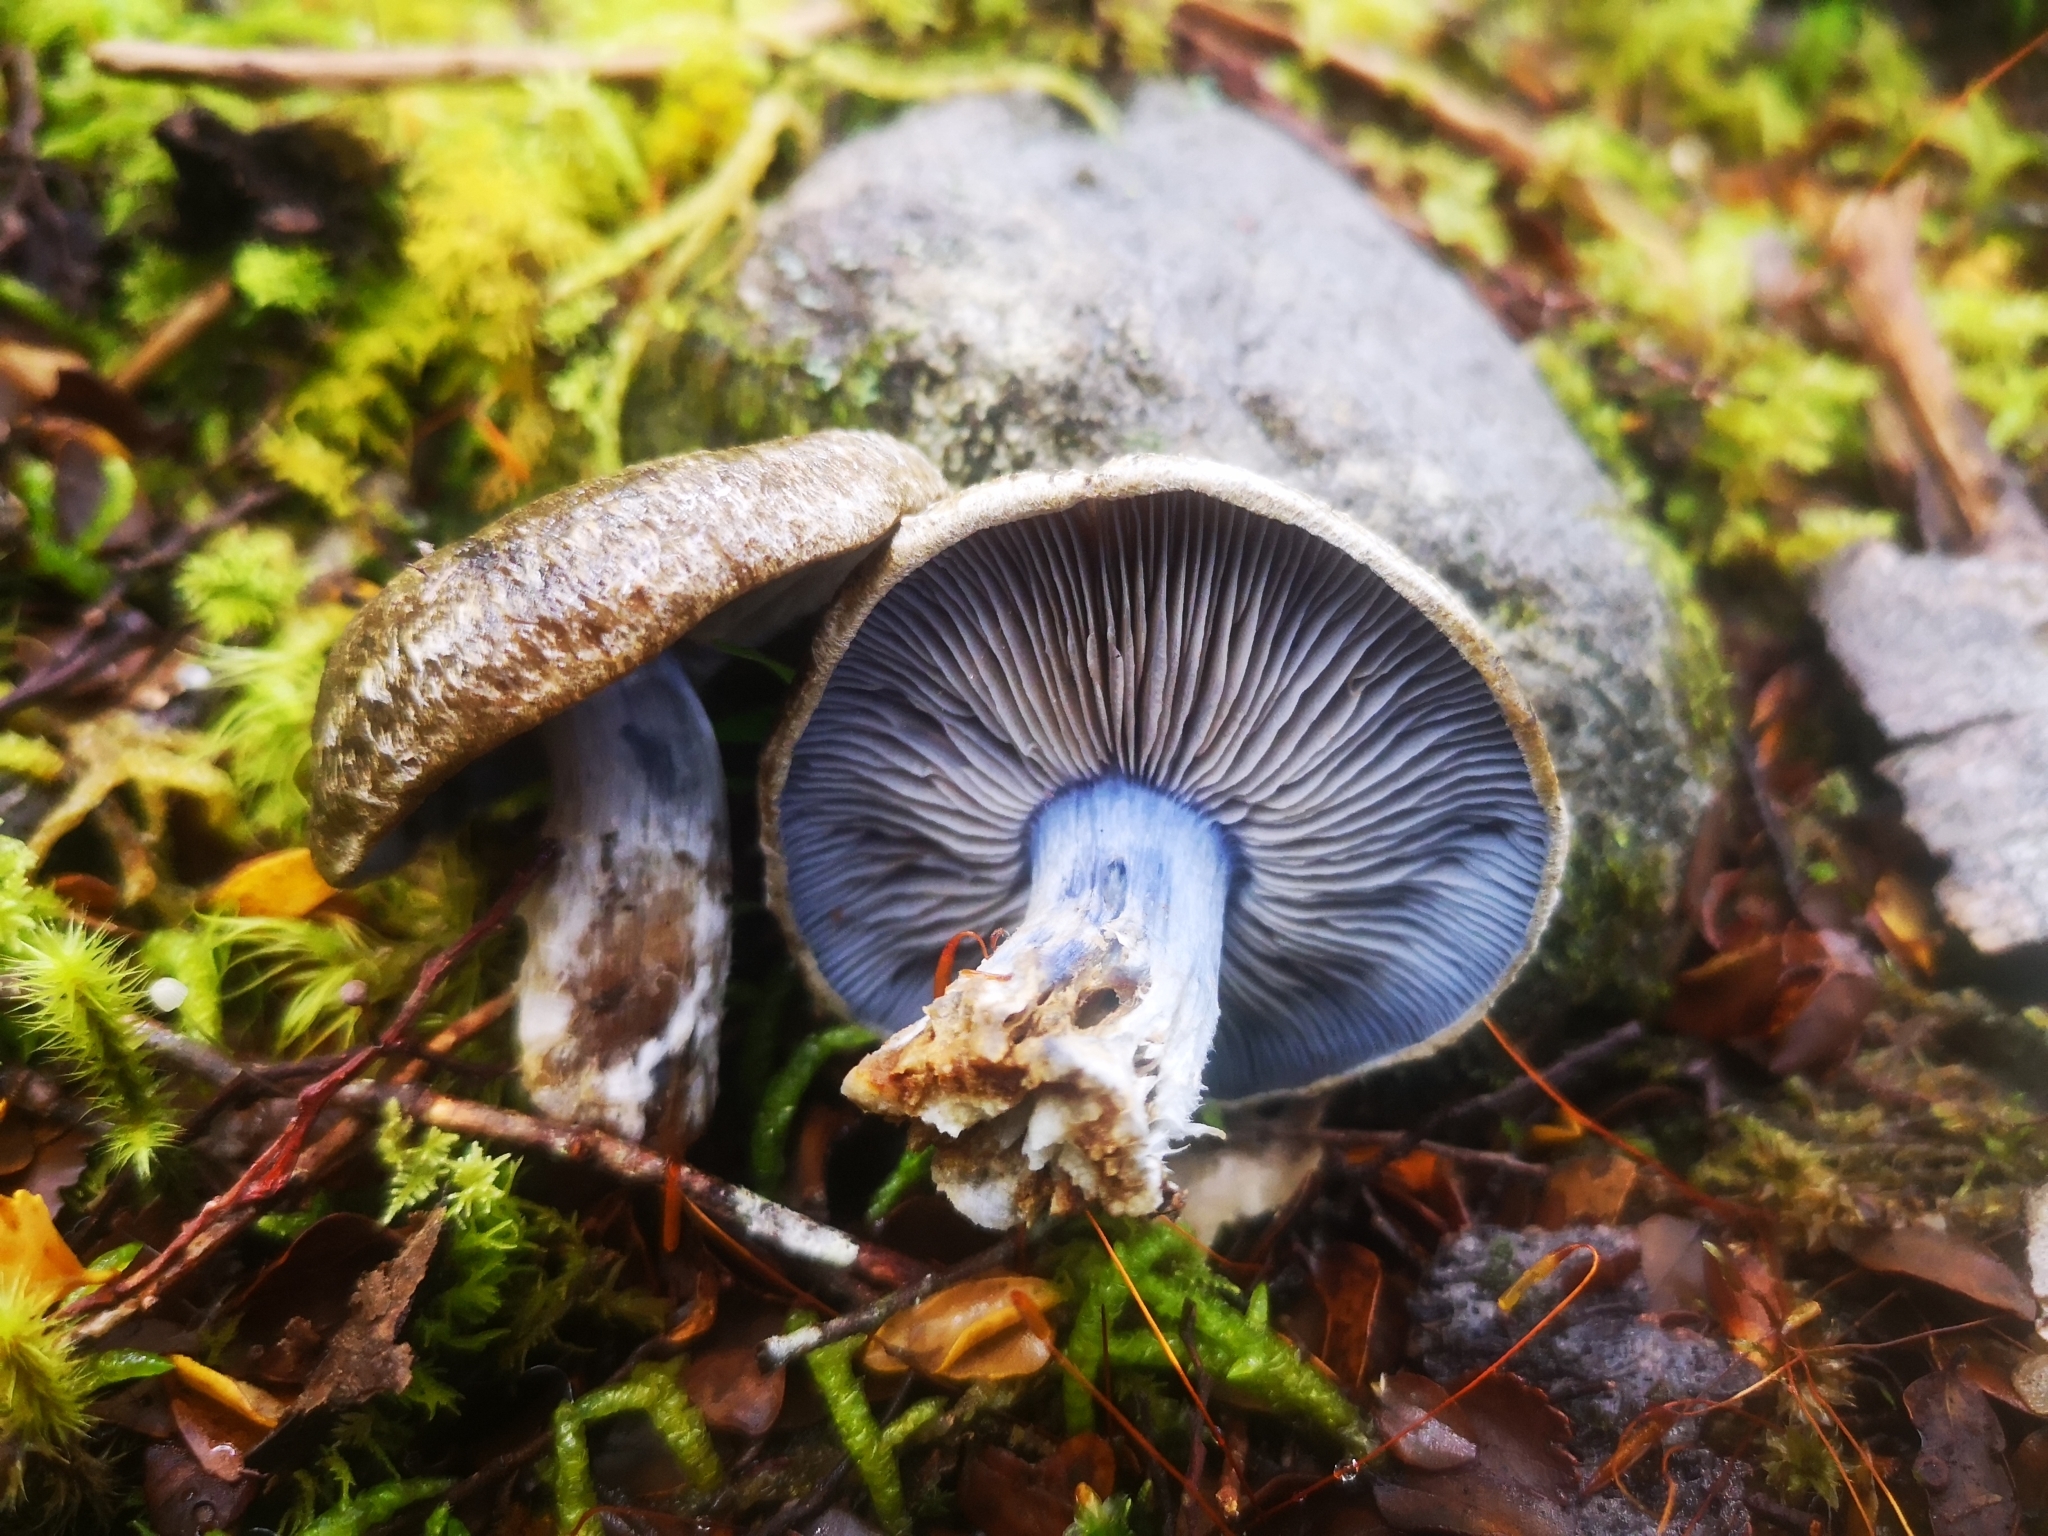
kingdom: Fungi
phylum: Basidiomycota
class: Agaricomycetes
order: Agaricales
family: Cortinariaceae
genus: Thaxterogaster
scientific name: Thaxterogaster austrocyanites
